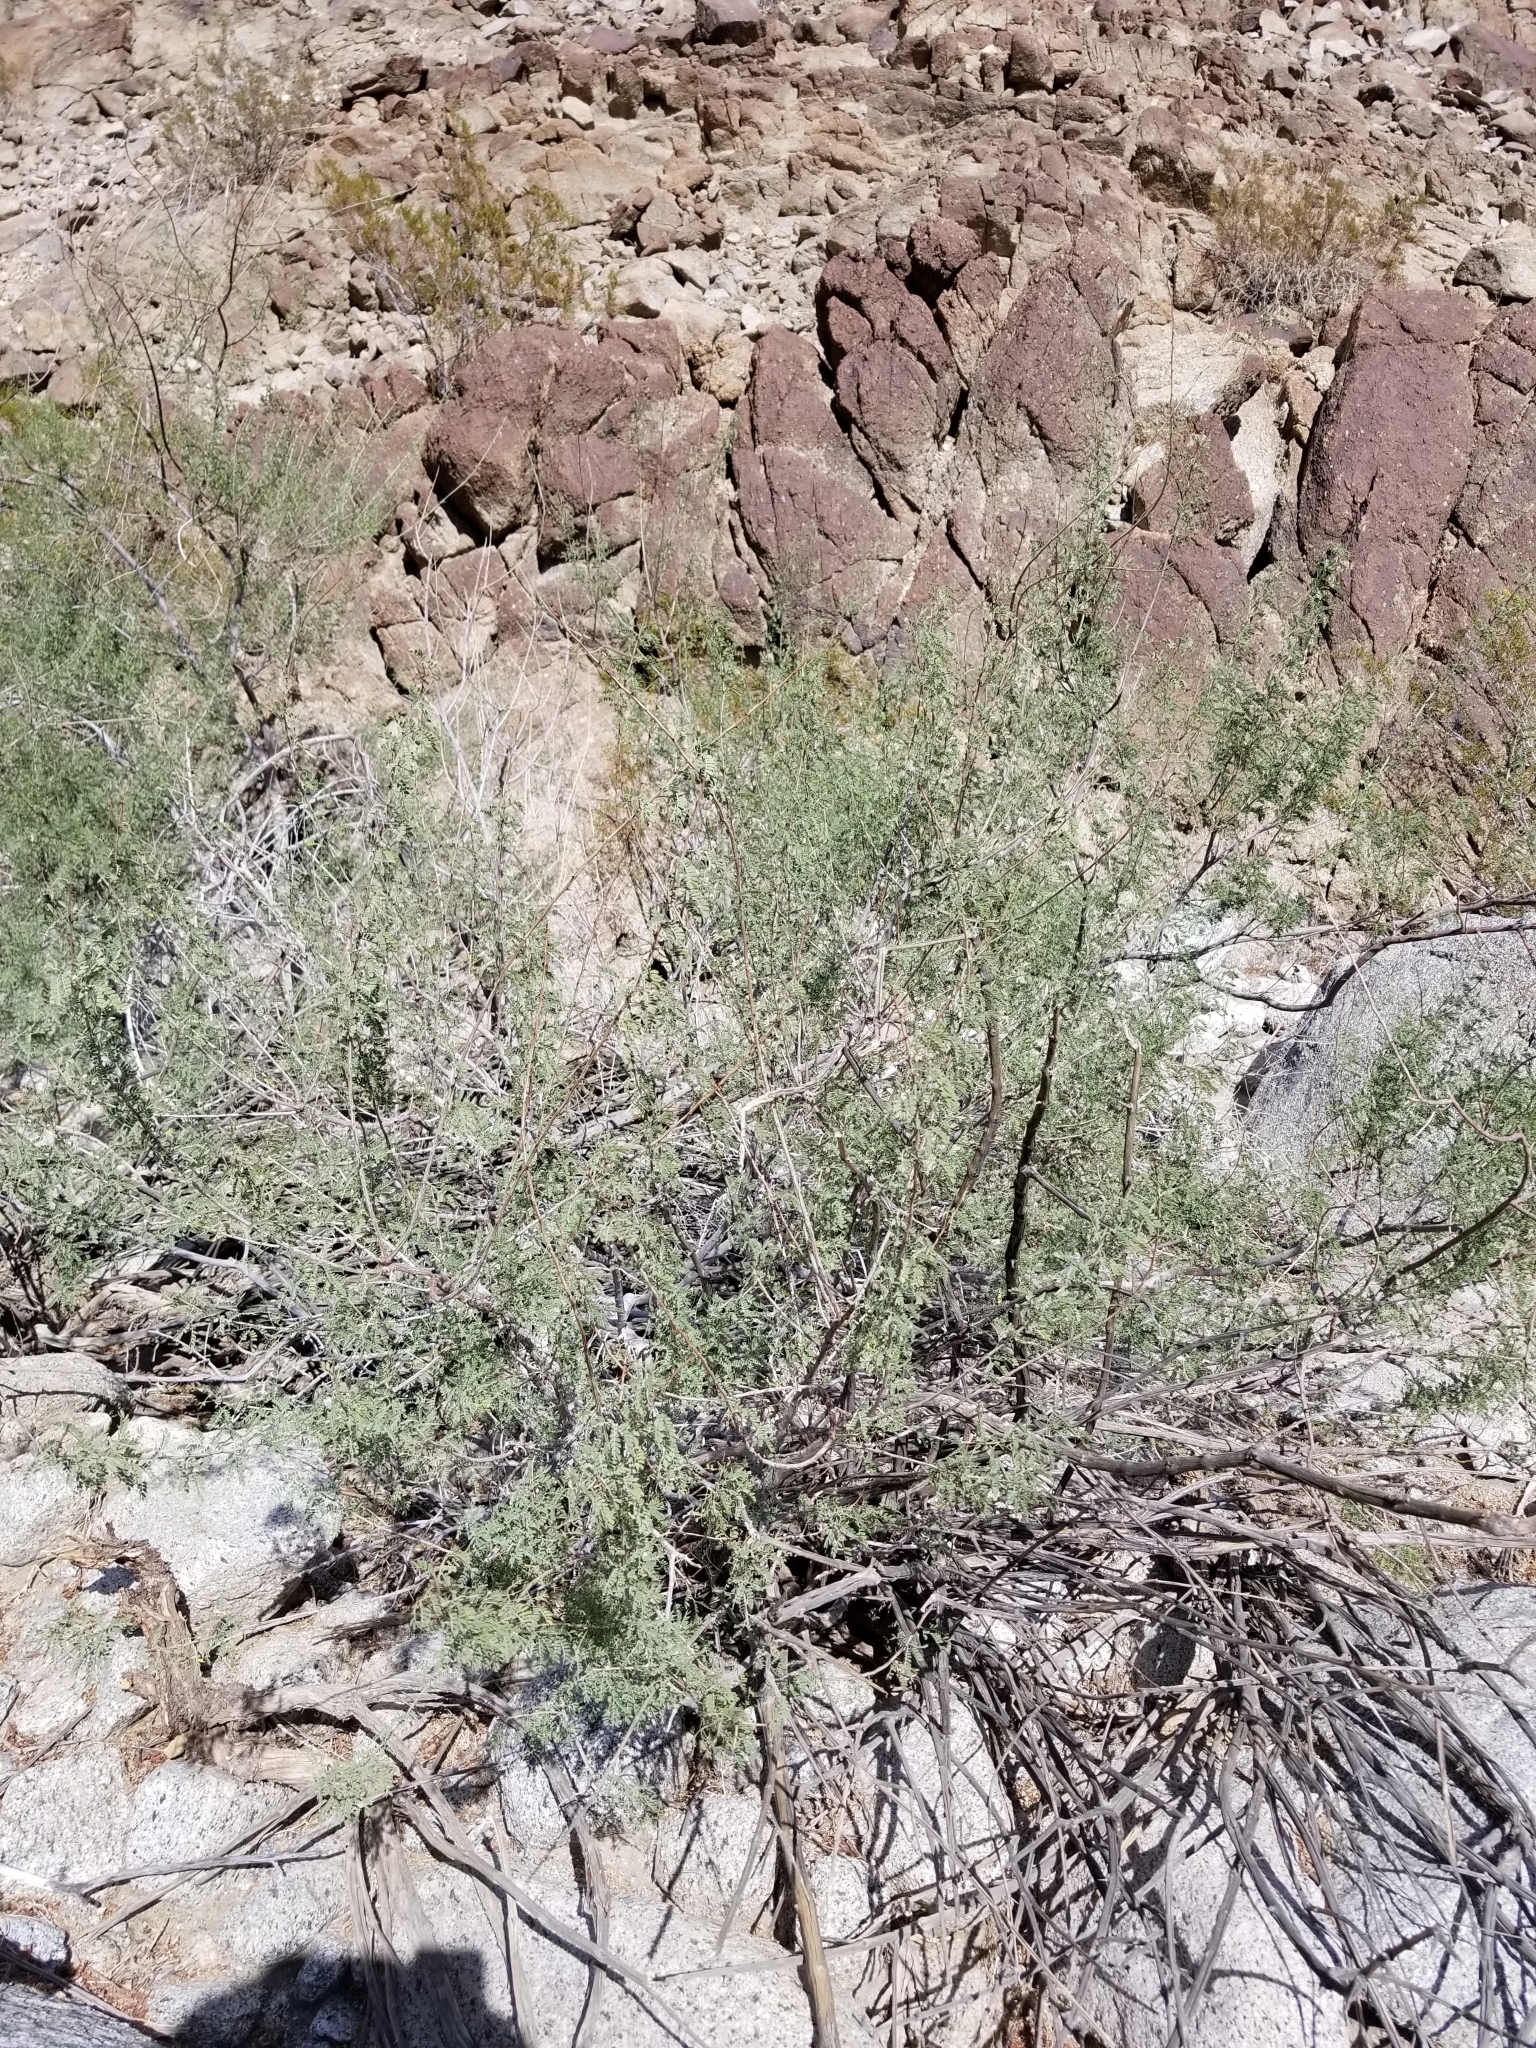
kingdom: Plantae
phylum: Tracheophyta
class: Magnoliopsida
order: Fabales
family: Fabaceae
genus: Senegalia
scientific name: Senegalia greggii
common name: Texas-mimosa
